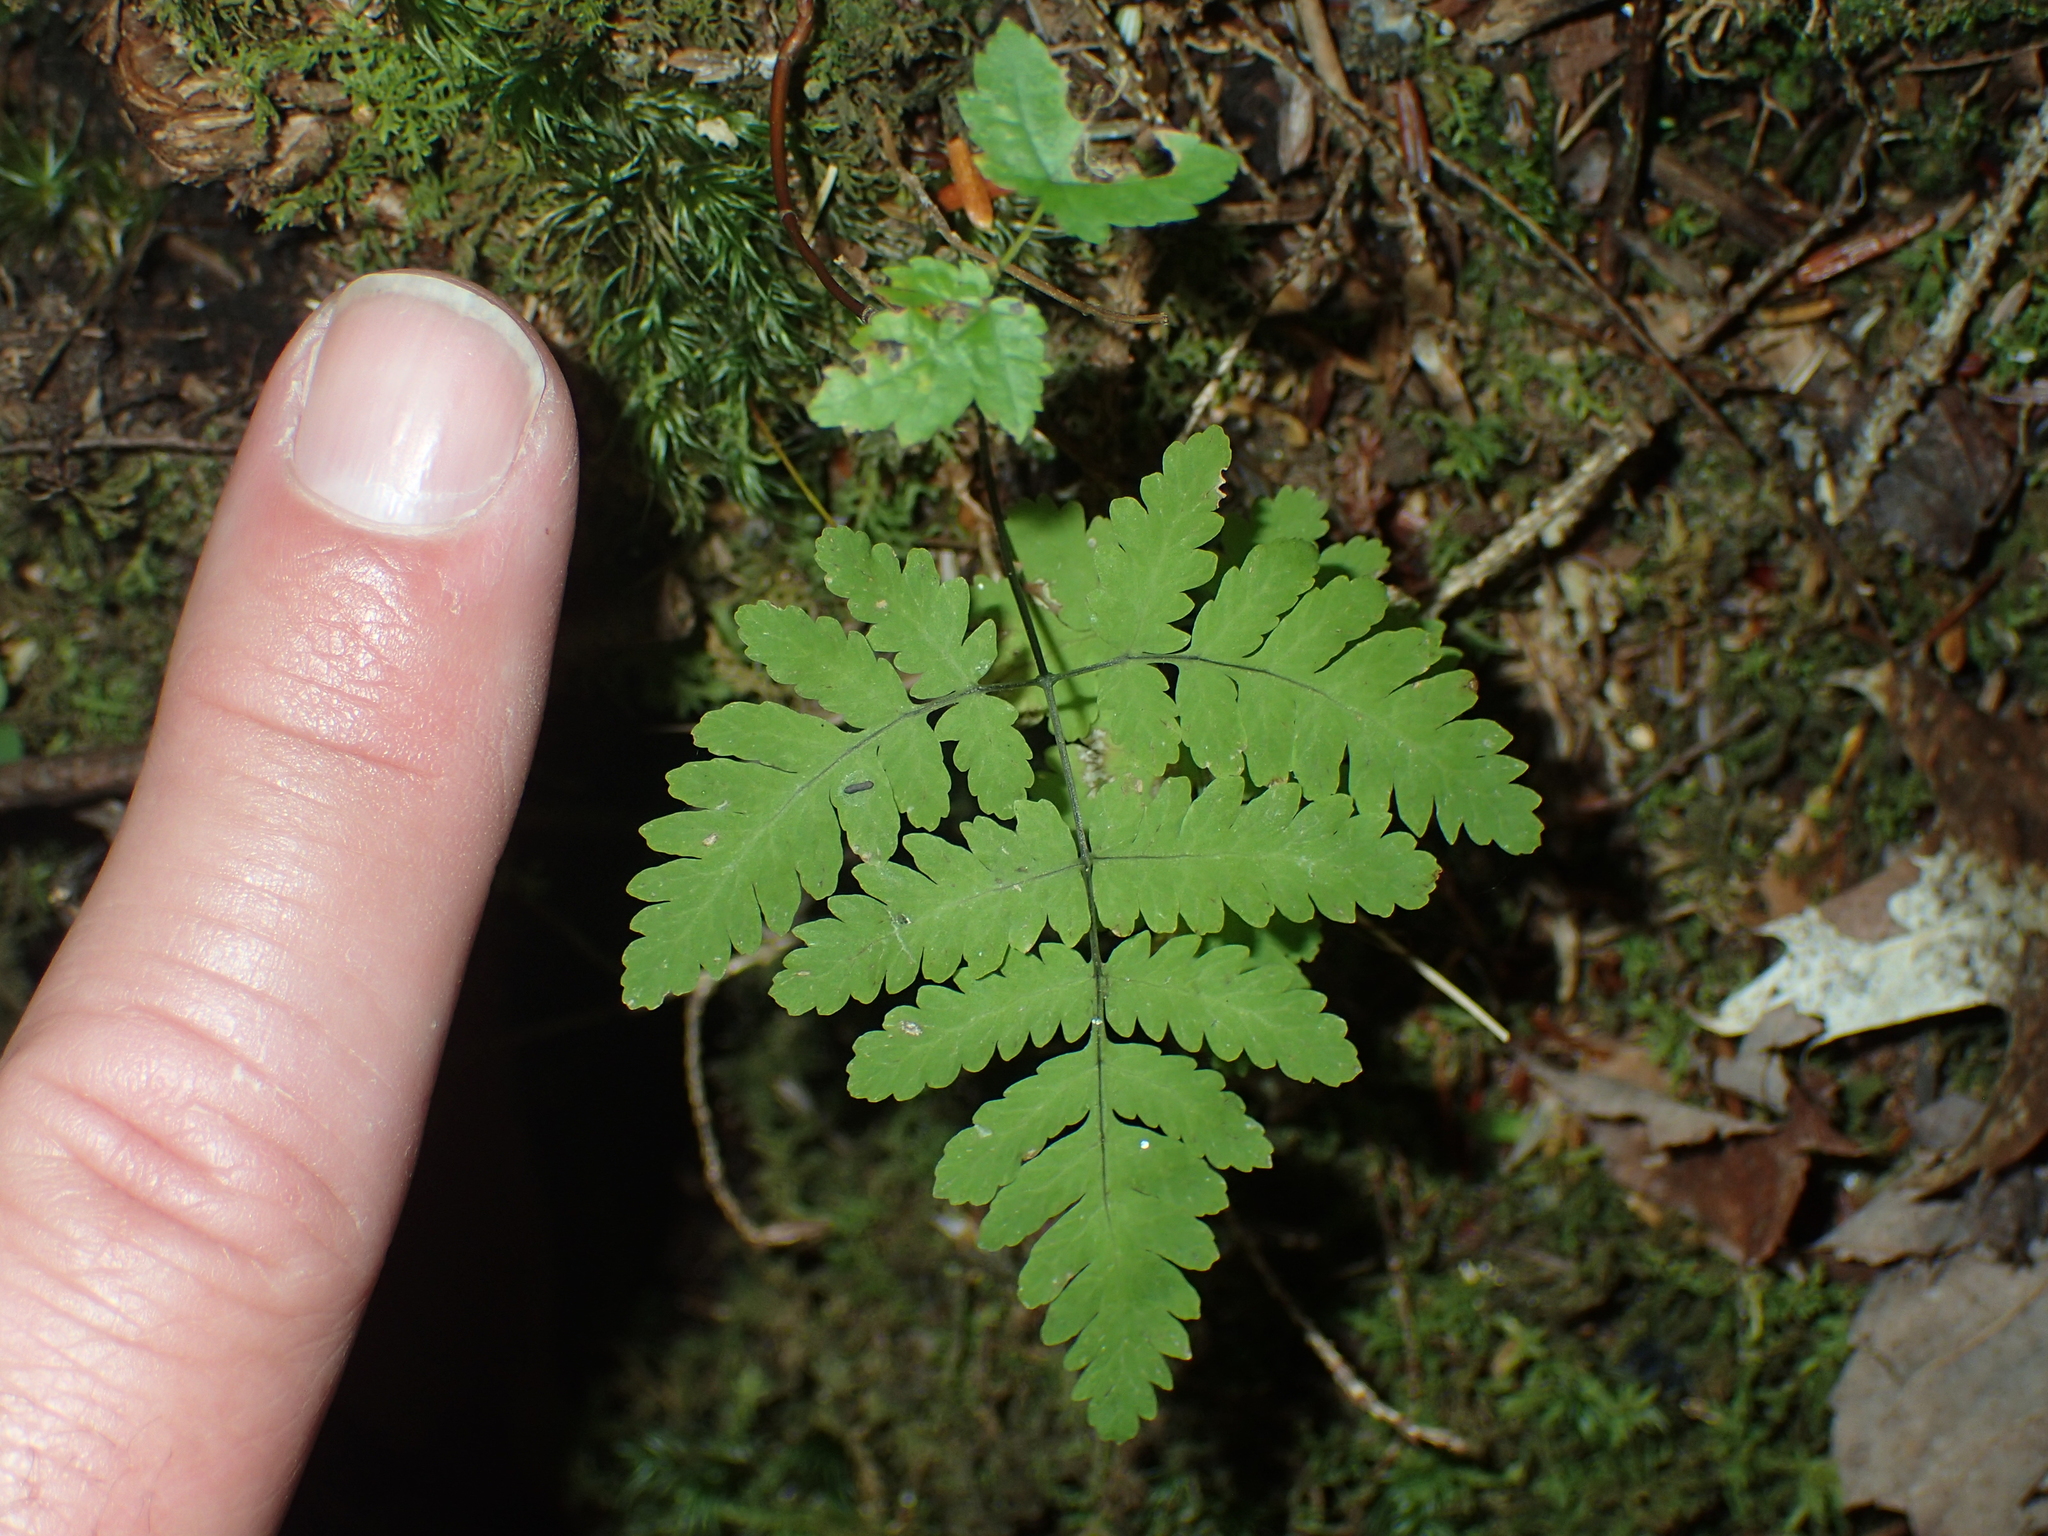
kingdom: Plantae
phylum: Tracheophyta
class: Polypodiopsida
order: Polypodiales
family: Cystopteridaceae
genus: Gymnocarpium
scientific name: Gymnocarpium dryopteris
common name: Oak fern
